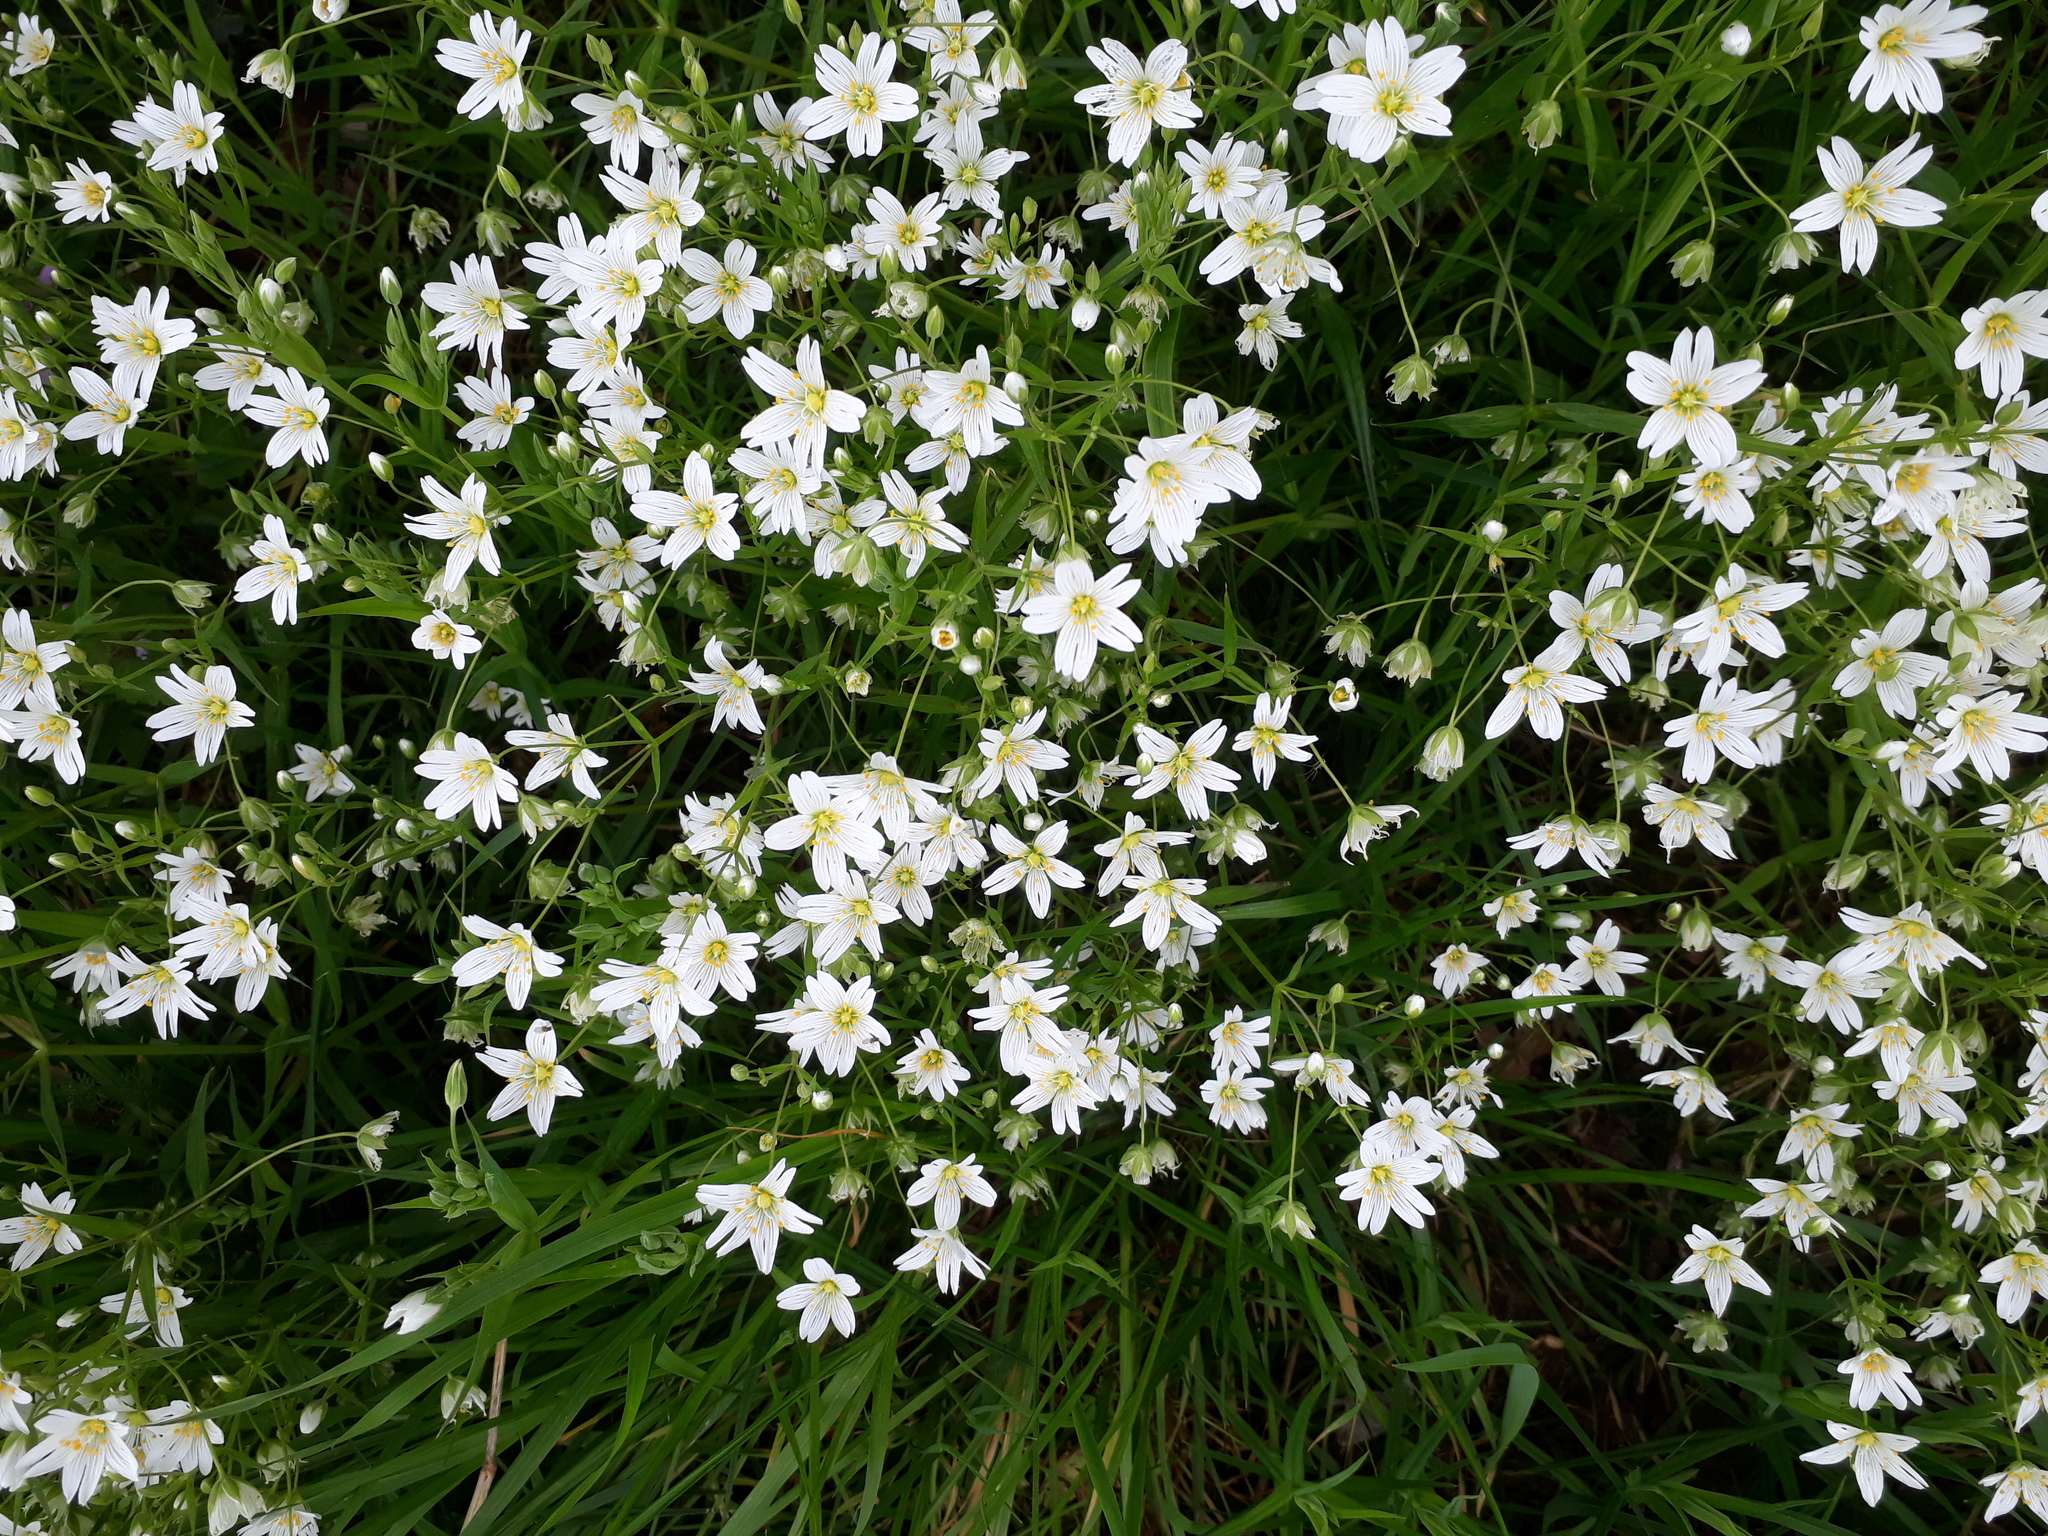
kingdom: Plantae
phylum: Tracheophyta
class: Magnoliopsida
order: Caryophyllales
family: Caryophyllaceae
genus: Rabelera
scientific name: Rabelera holostea
